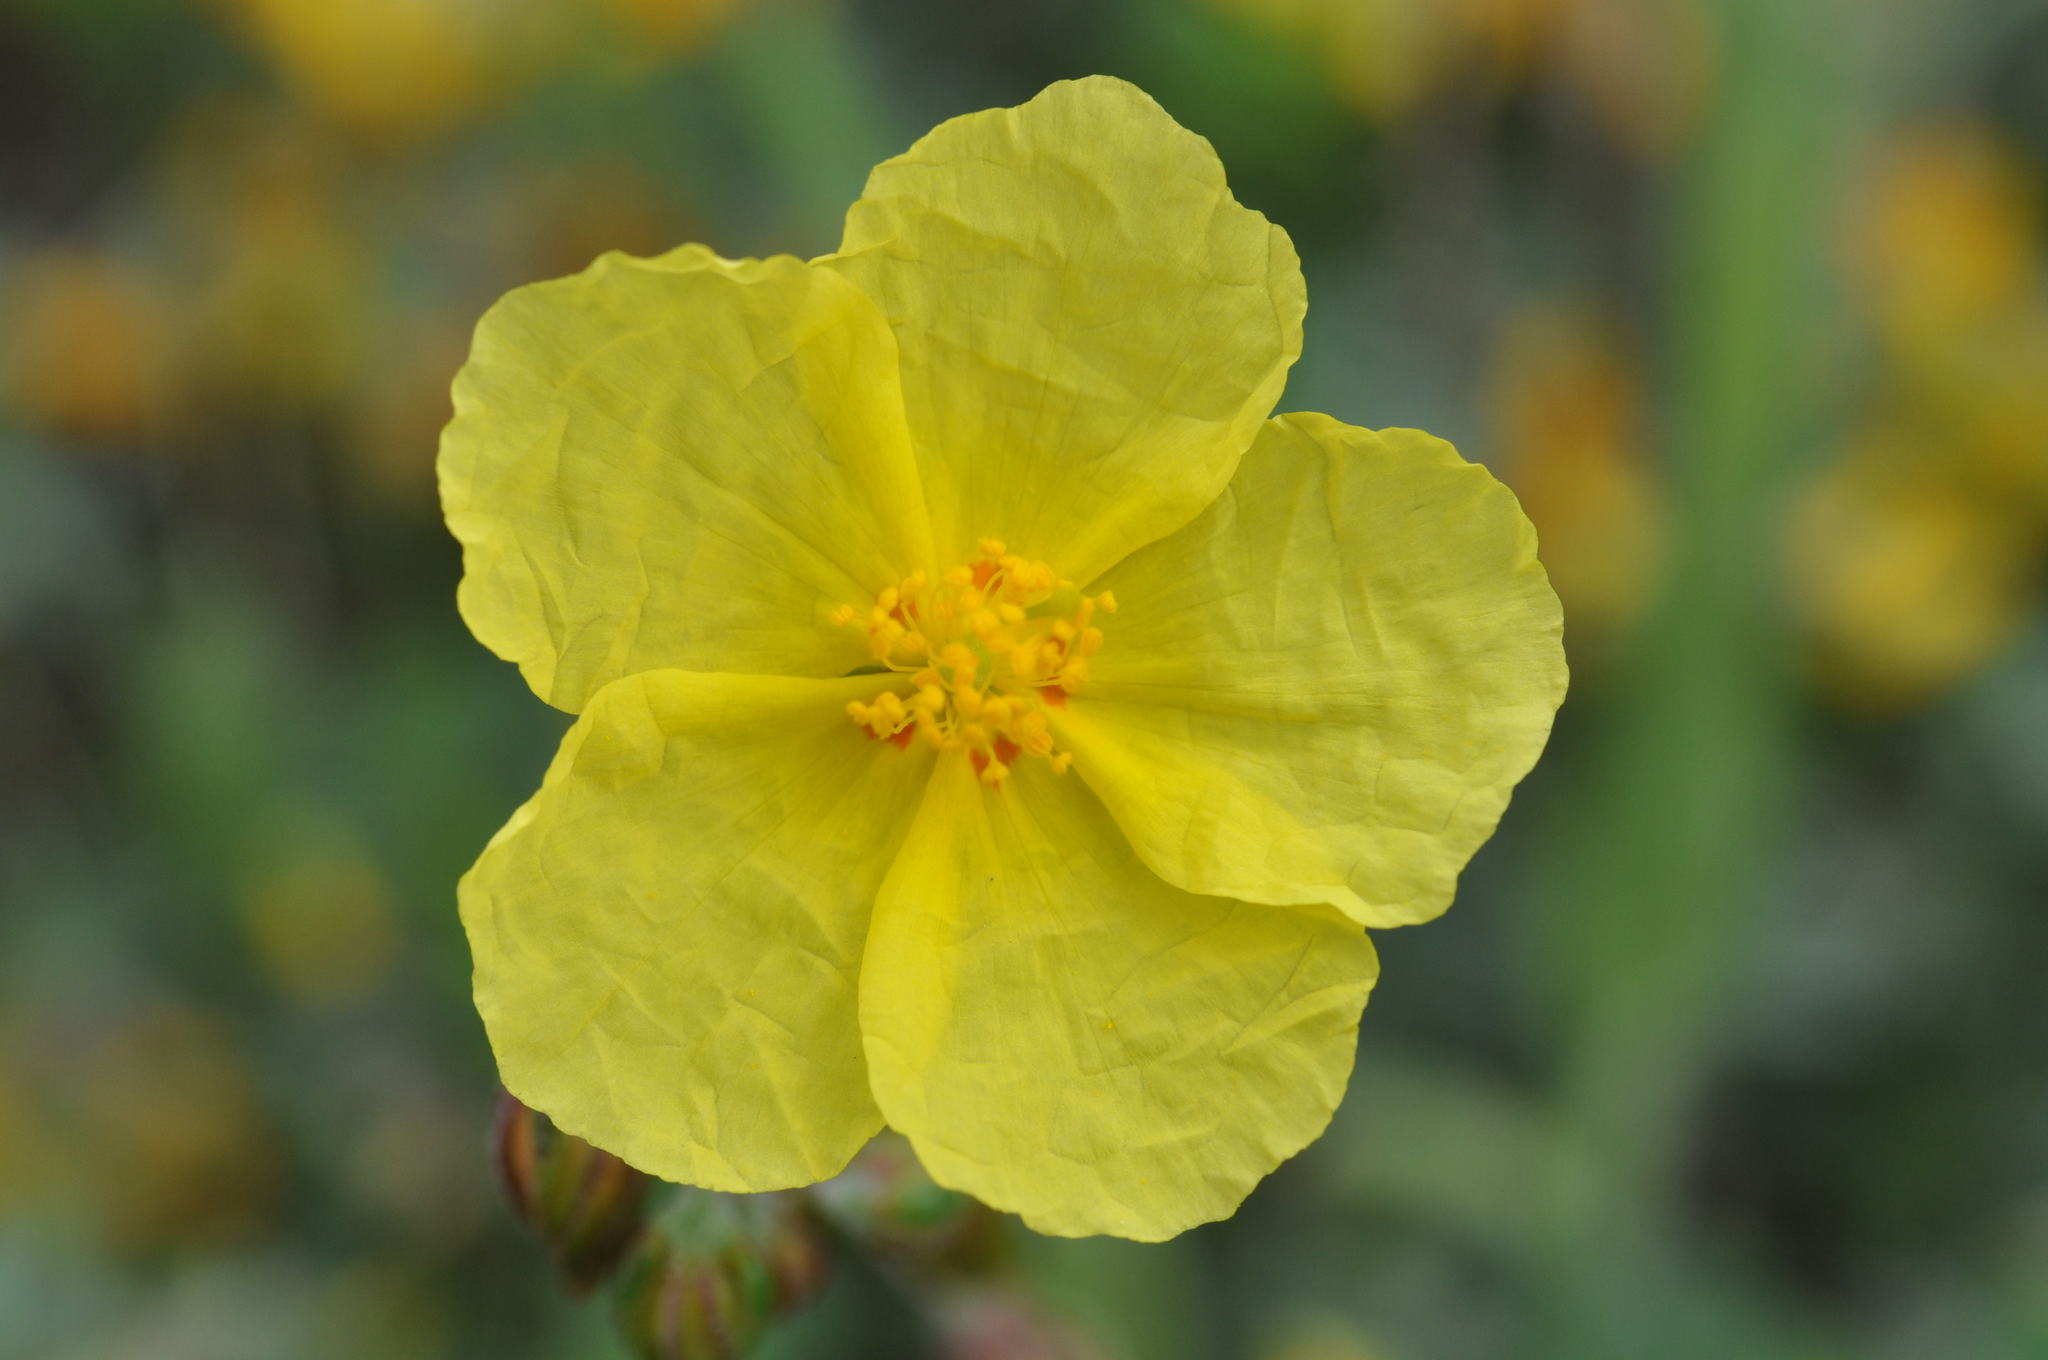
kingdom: Plantae
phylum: Tracheophyta
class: Magnoliopsida
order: Malvales
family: Cistaceae
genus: Helianthemum
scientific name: Helianthemum nummularium
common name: Common rock-rose
